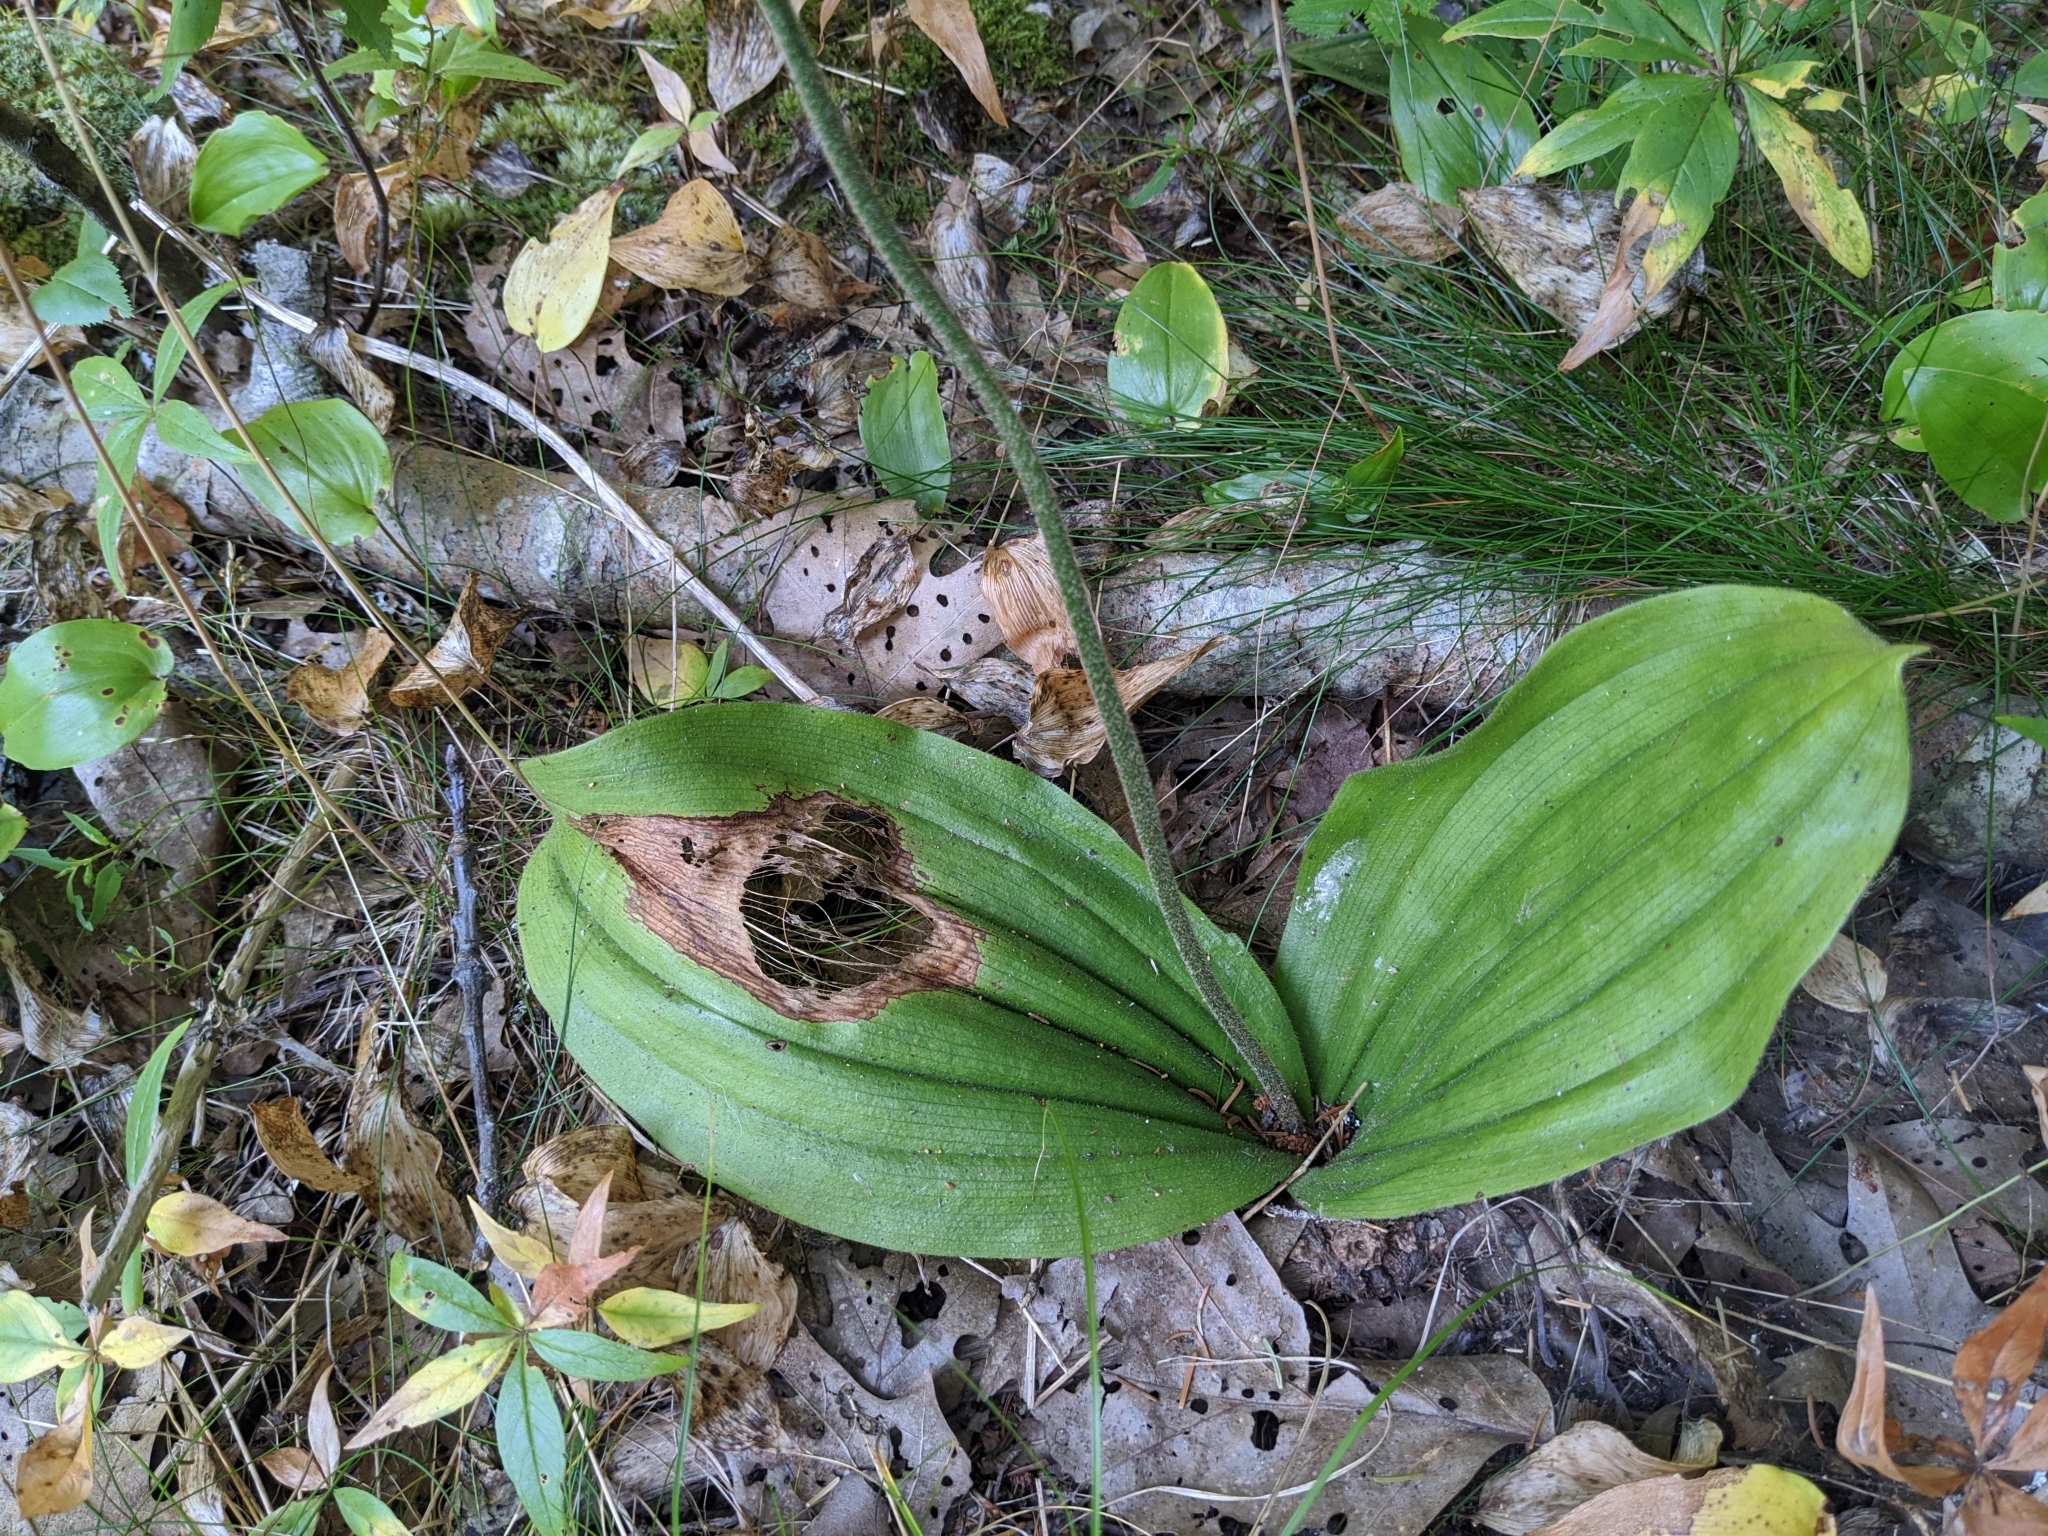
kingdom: Plantae
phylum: Tracheophyta
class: Liliopsida
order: Asparagales
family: Orchidaceae
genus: Cypripedium
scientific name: Cypripedium acaule
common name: Pink lady's-slipper
